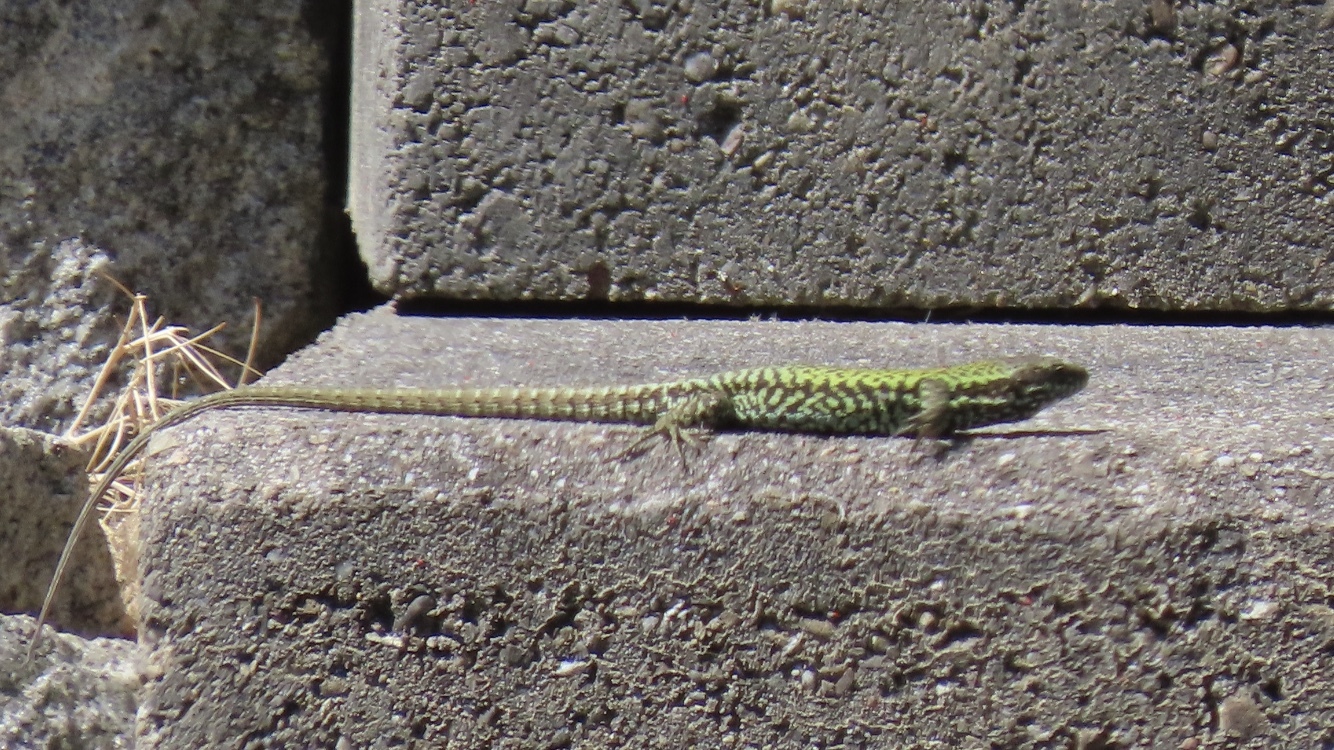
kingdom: Animalia
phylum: Chordata
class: Squamata
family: Lacertidae
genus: Podarcis
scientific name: Podarcis muralis
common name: Common wall lizard
